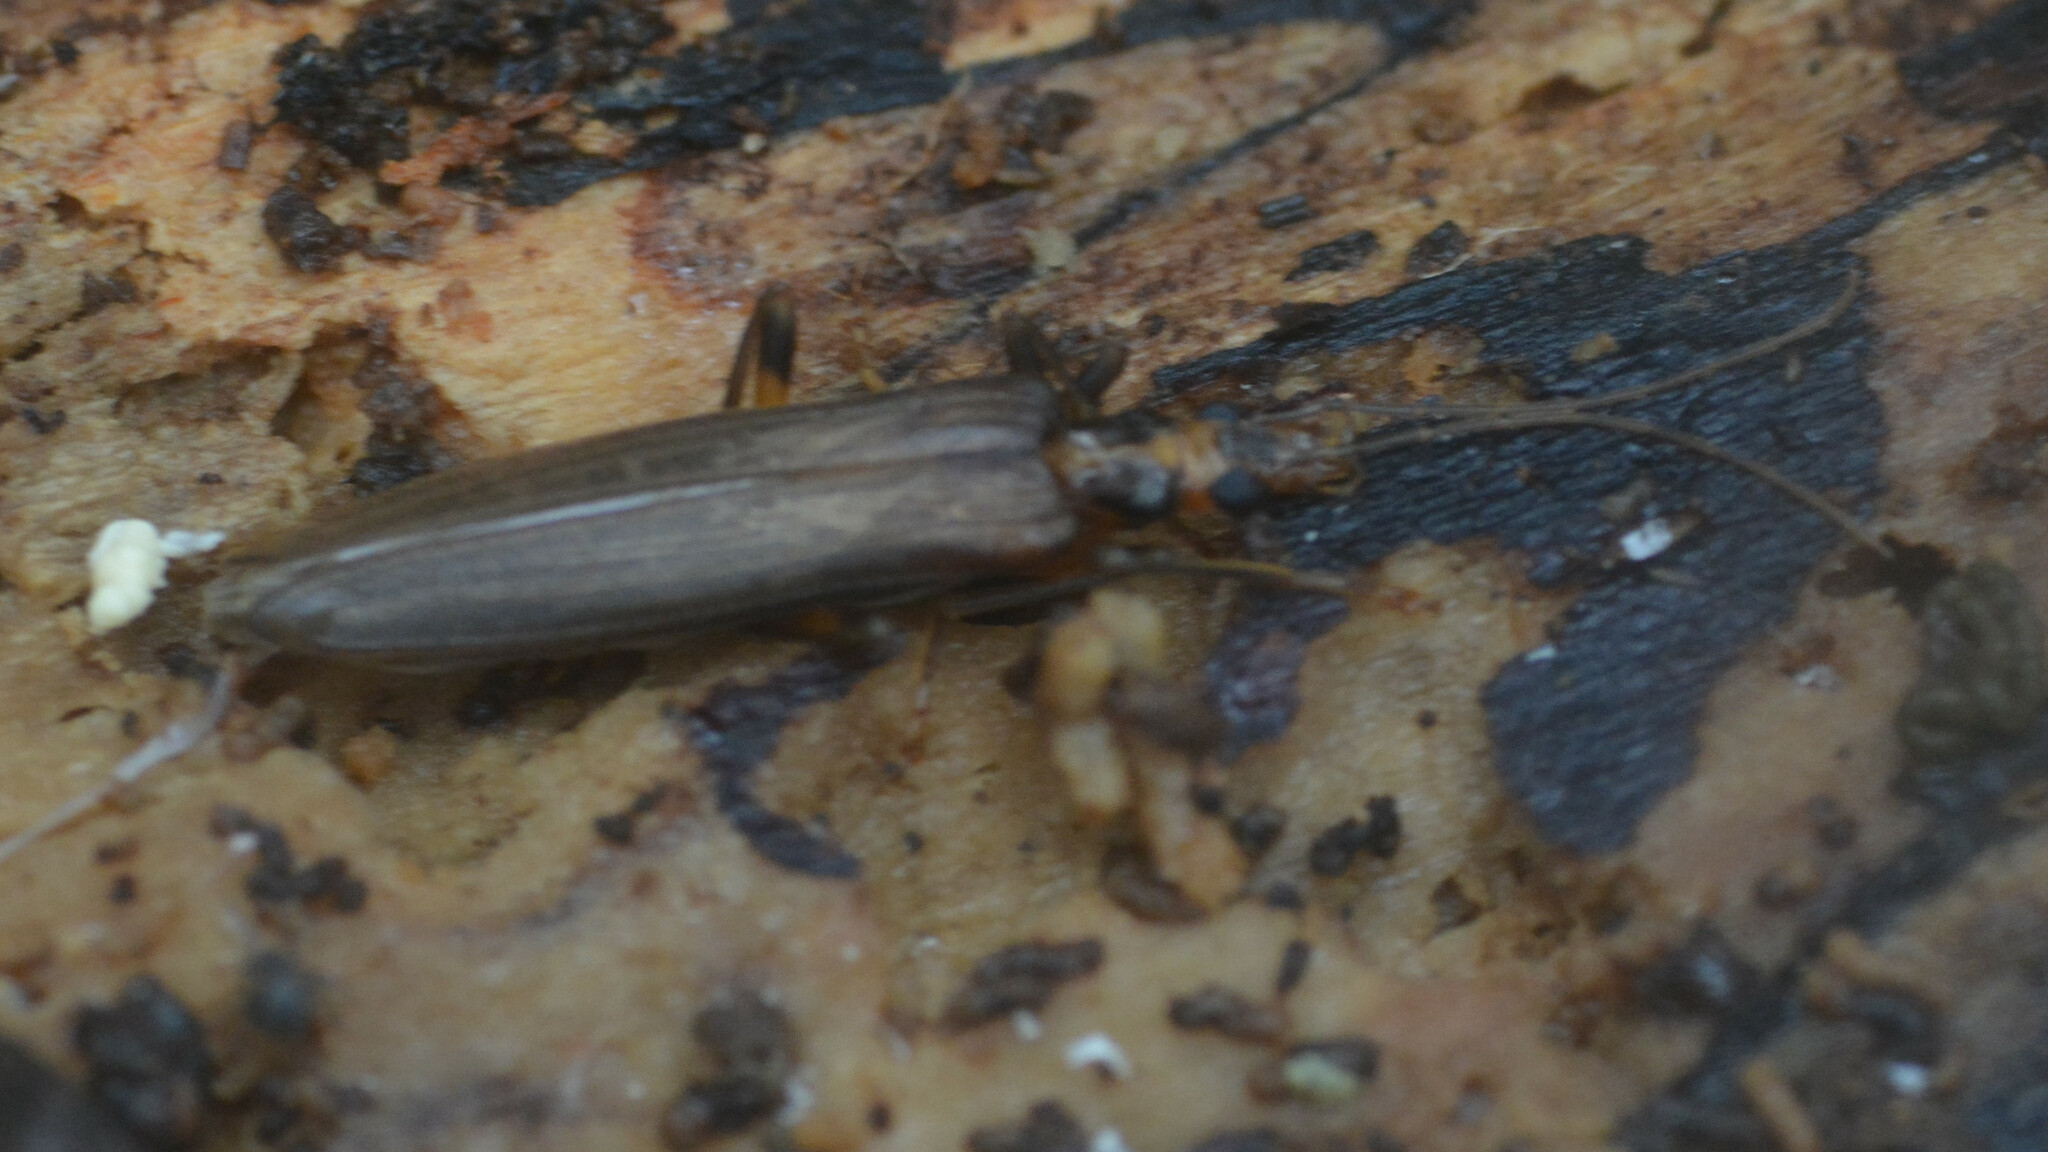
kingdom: Animalia
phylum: Arthropoda
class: Insecta
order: Coleoptera
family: Oedemeridae
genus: Oedemera
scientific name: Oedemera femoralis
